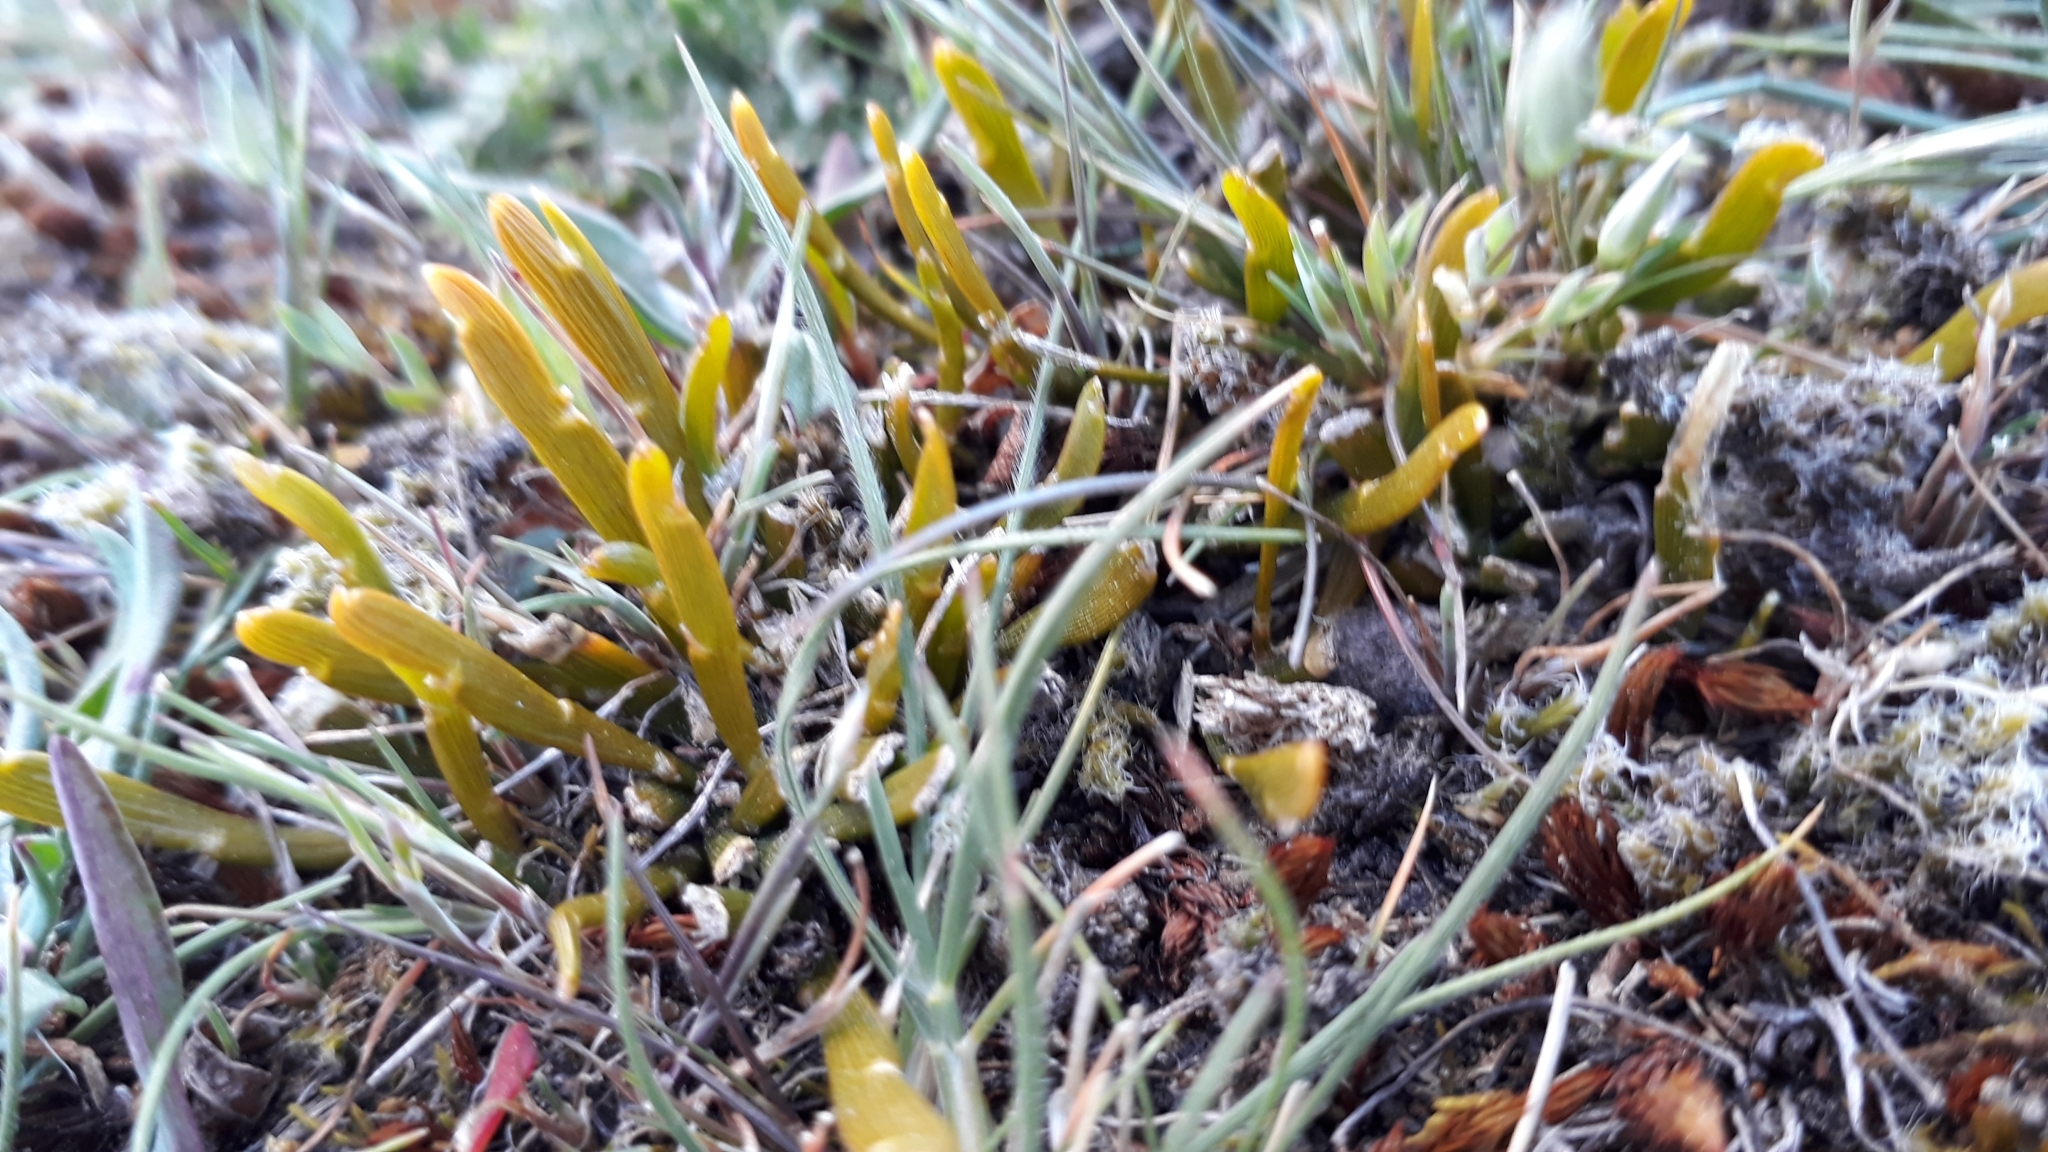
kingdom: Plantae
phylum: Tracheophyta
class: Magnoliopsida
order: Fabales
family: Fabaceae
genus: Carmichaelia
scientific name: Carmichaelia corrugata
